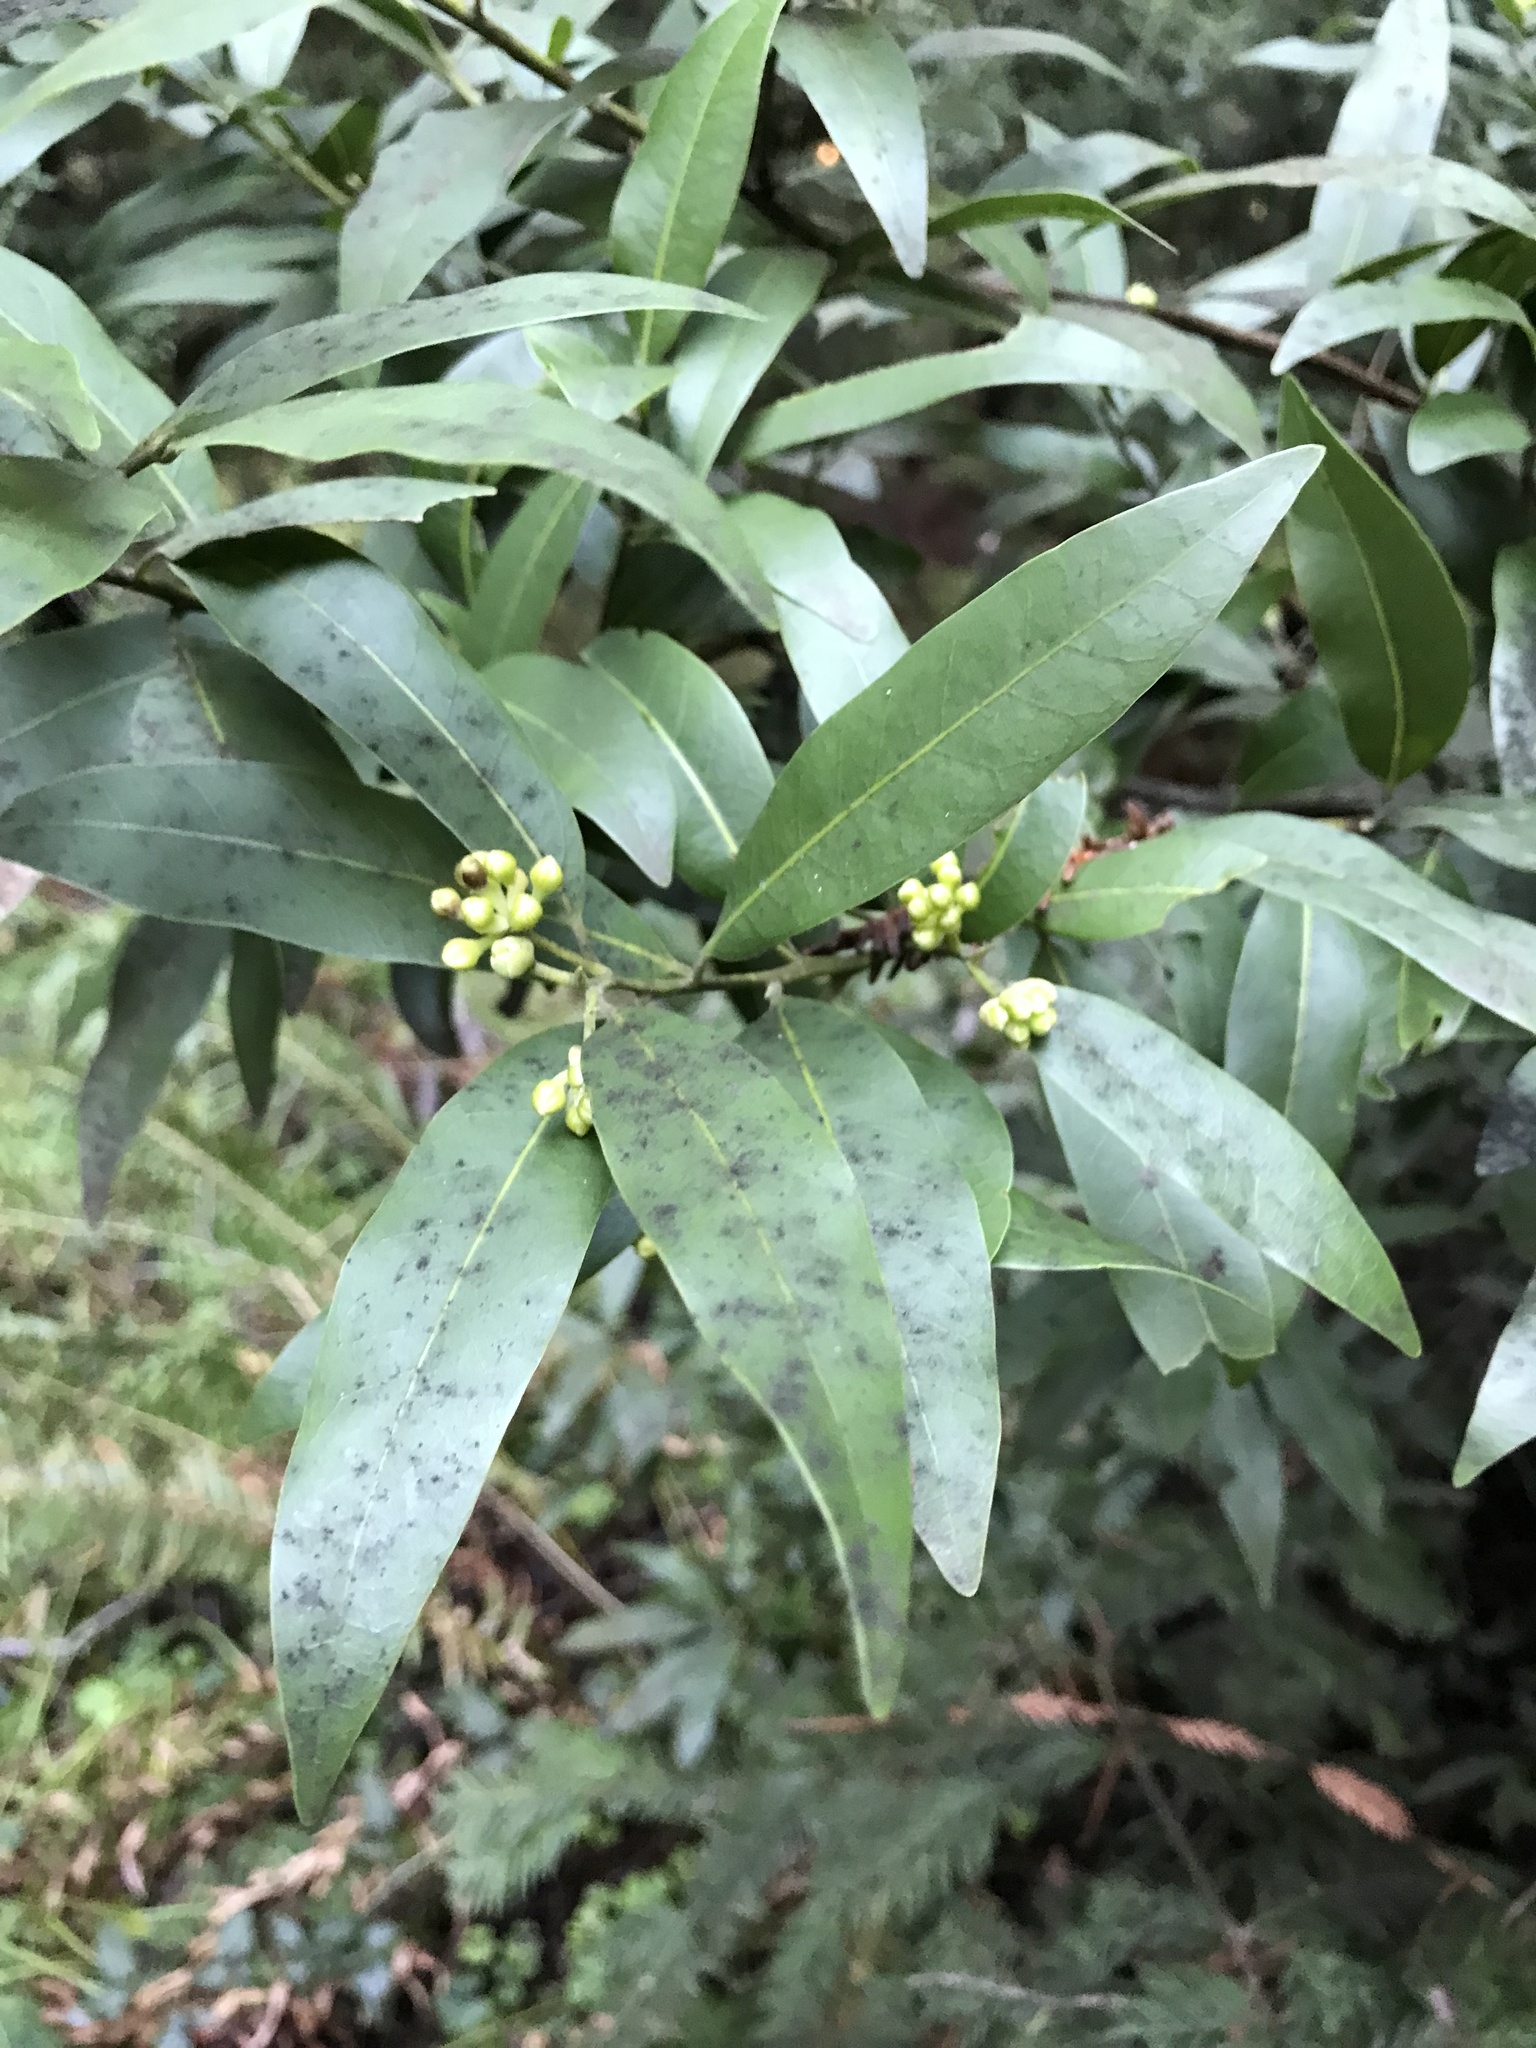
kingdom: Plantae
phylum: Tracheophyta
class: Magnoliopsida
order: Laurales
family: Lauraceae
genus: Umbellularia
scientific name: Umbellularia californica
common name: California bay
